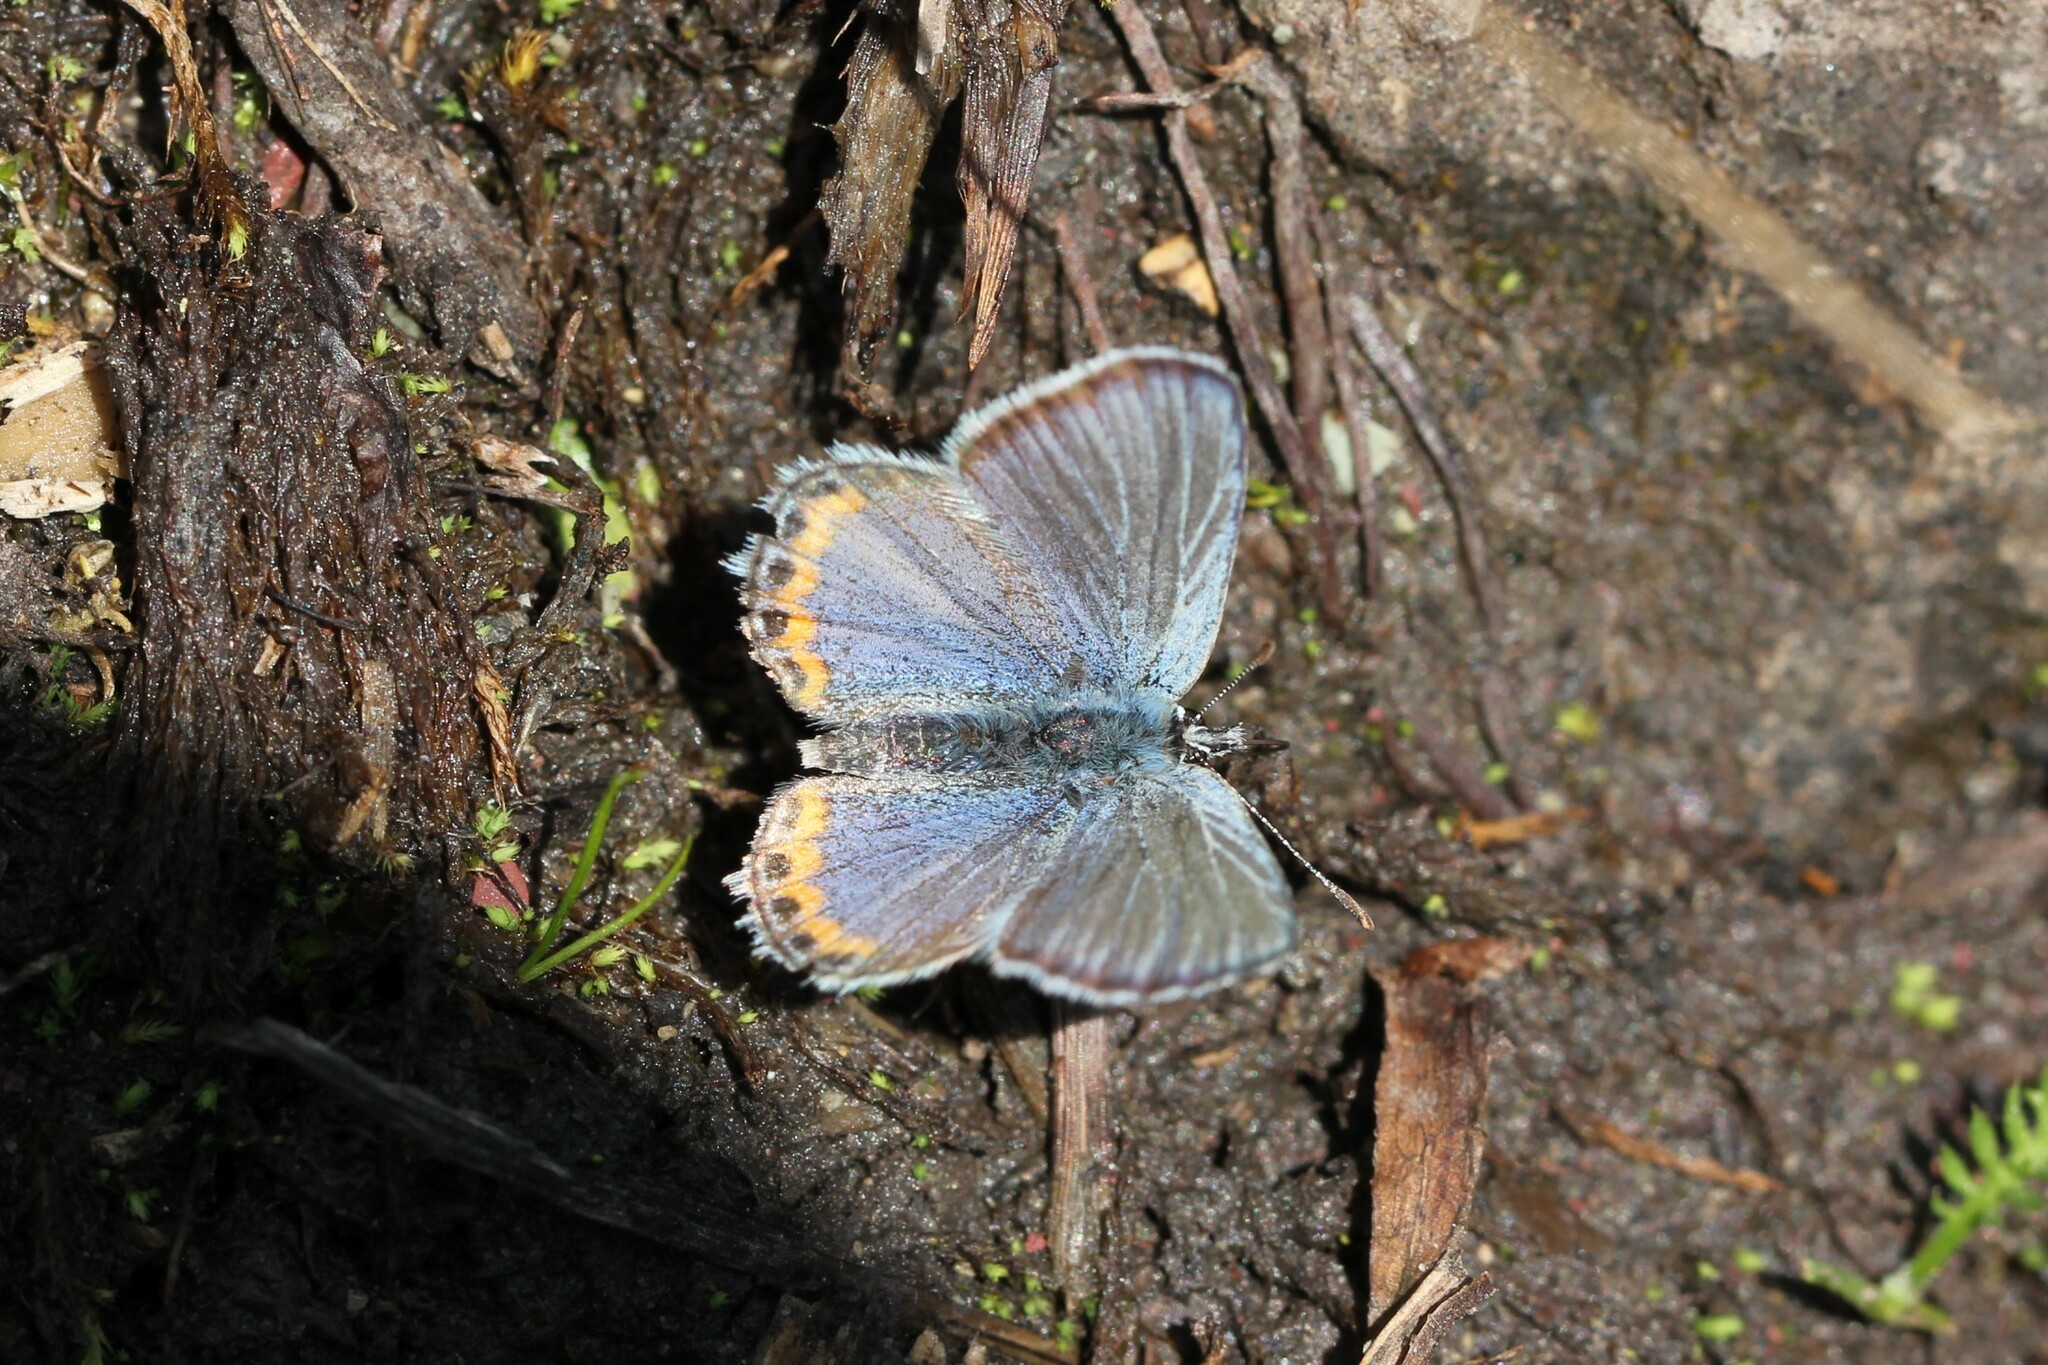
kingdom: Animalia
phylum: Arthropoda
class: Insecta
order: Lepidoptera
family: Lycaenidae
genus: Icaricia
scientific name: Icaricia lupini
